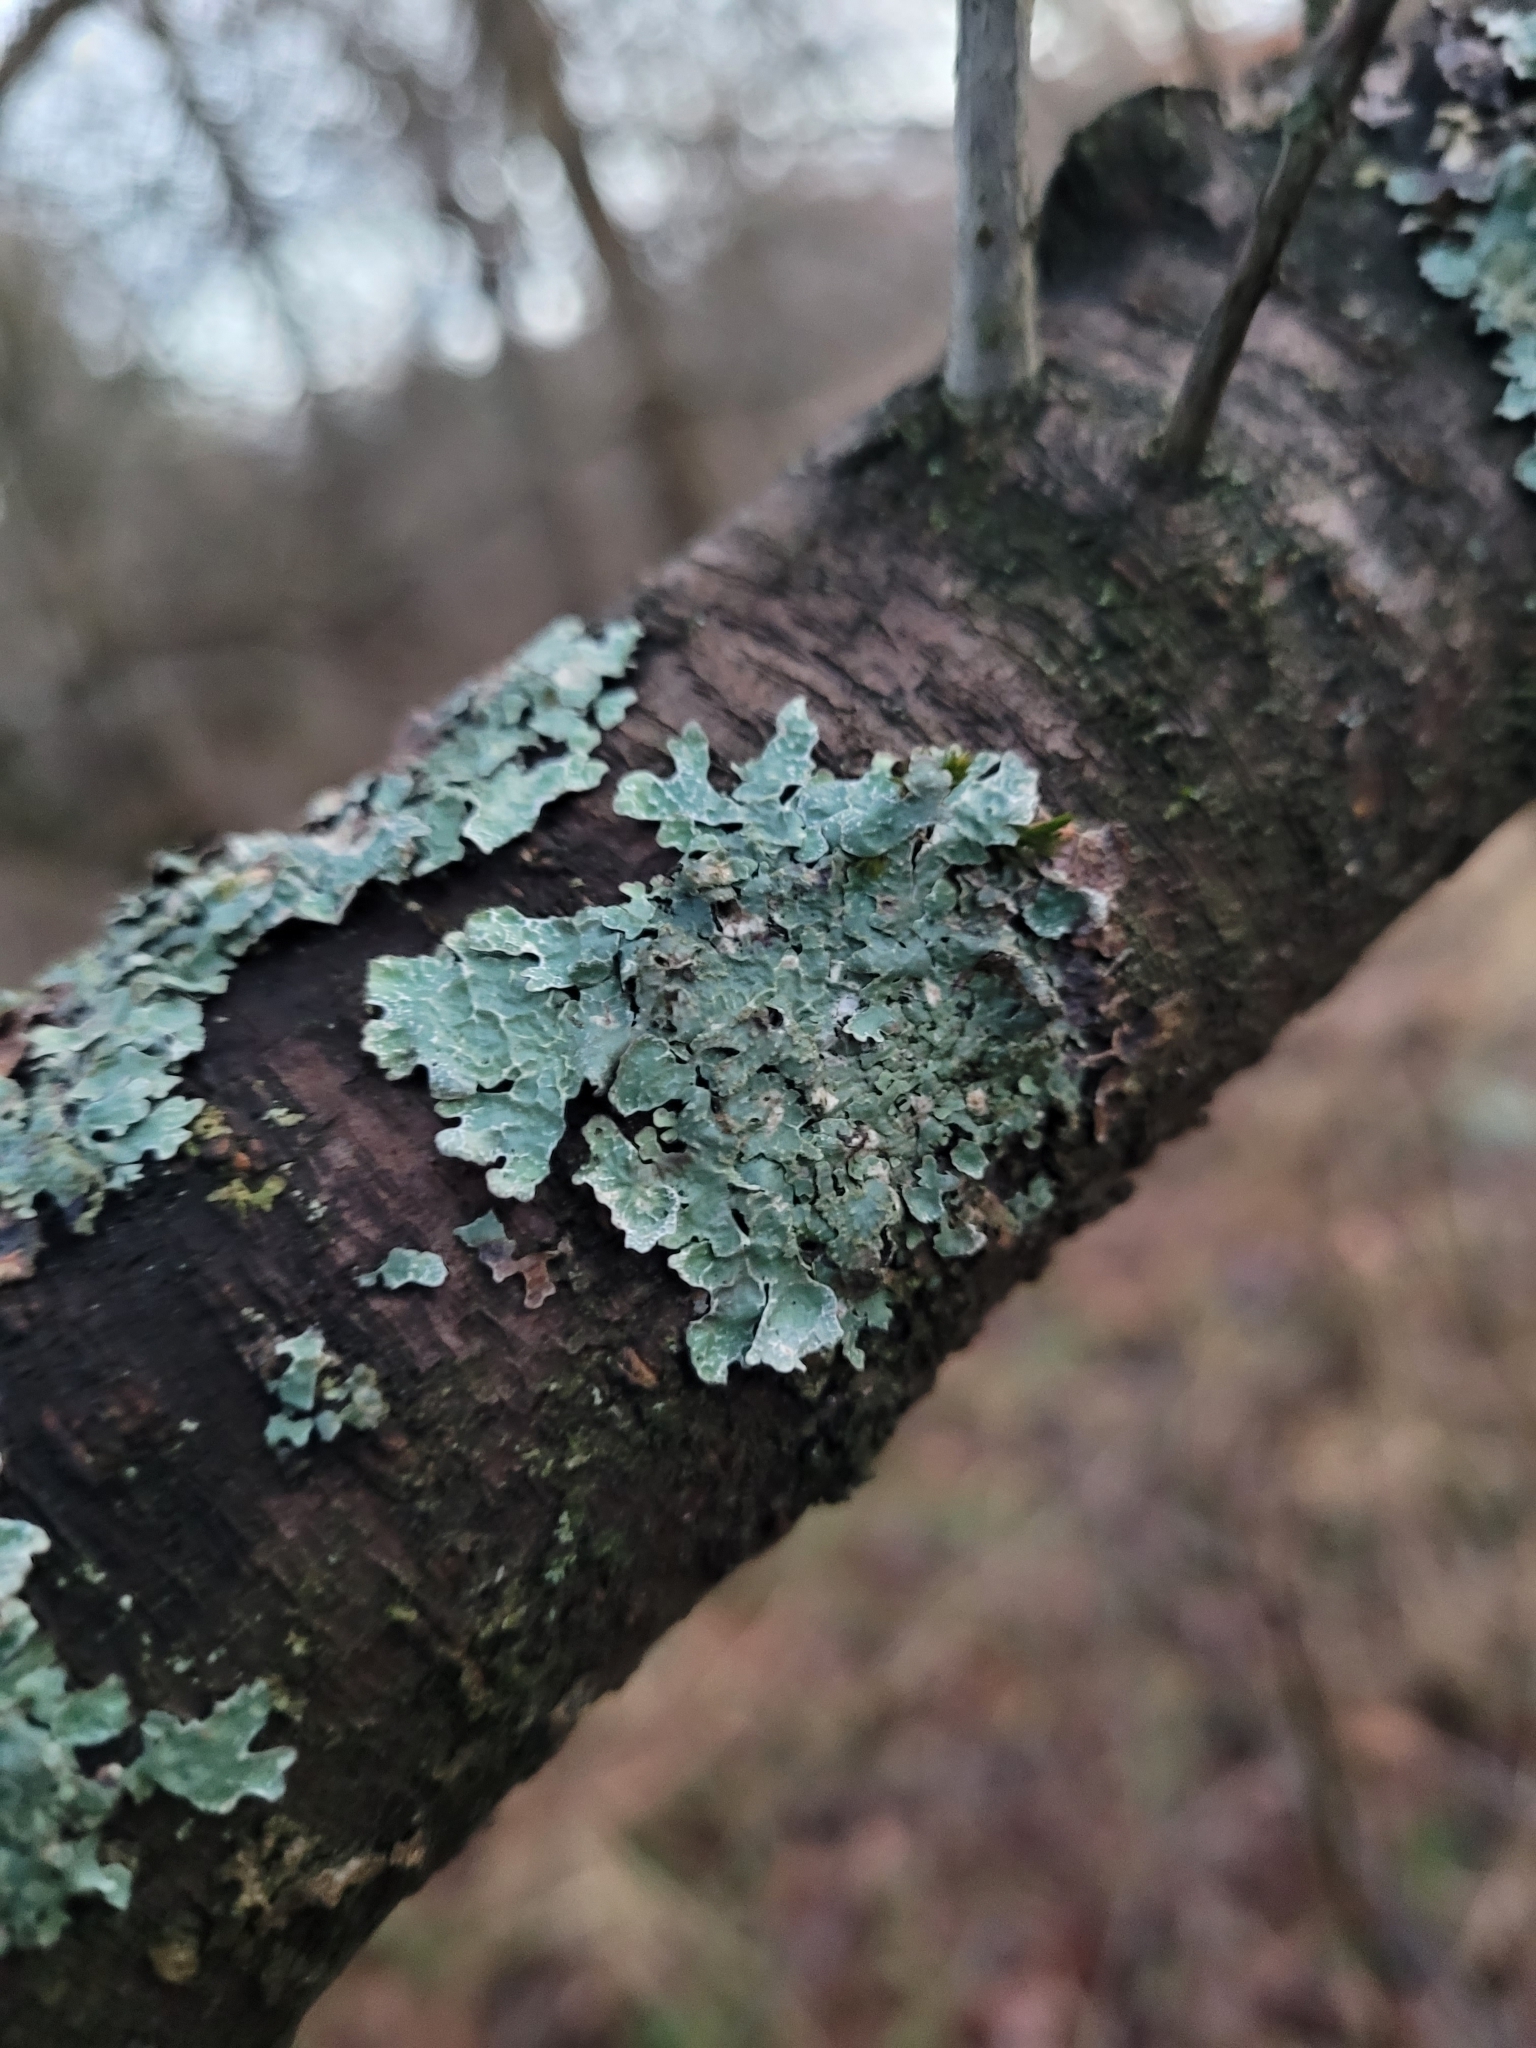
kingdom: Fungi
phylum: Ascomycota
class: Lecanoromycetes
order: Lecanorales
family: Parmeliaceae
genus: Parmelia
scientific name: Parmelia sulcata
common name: Netted shield lichen
